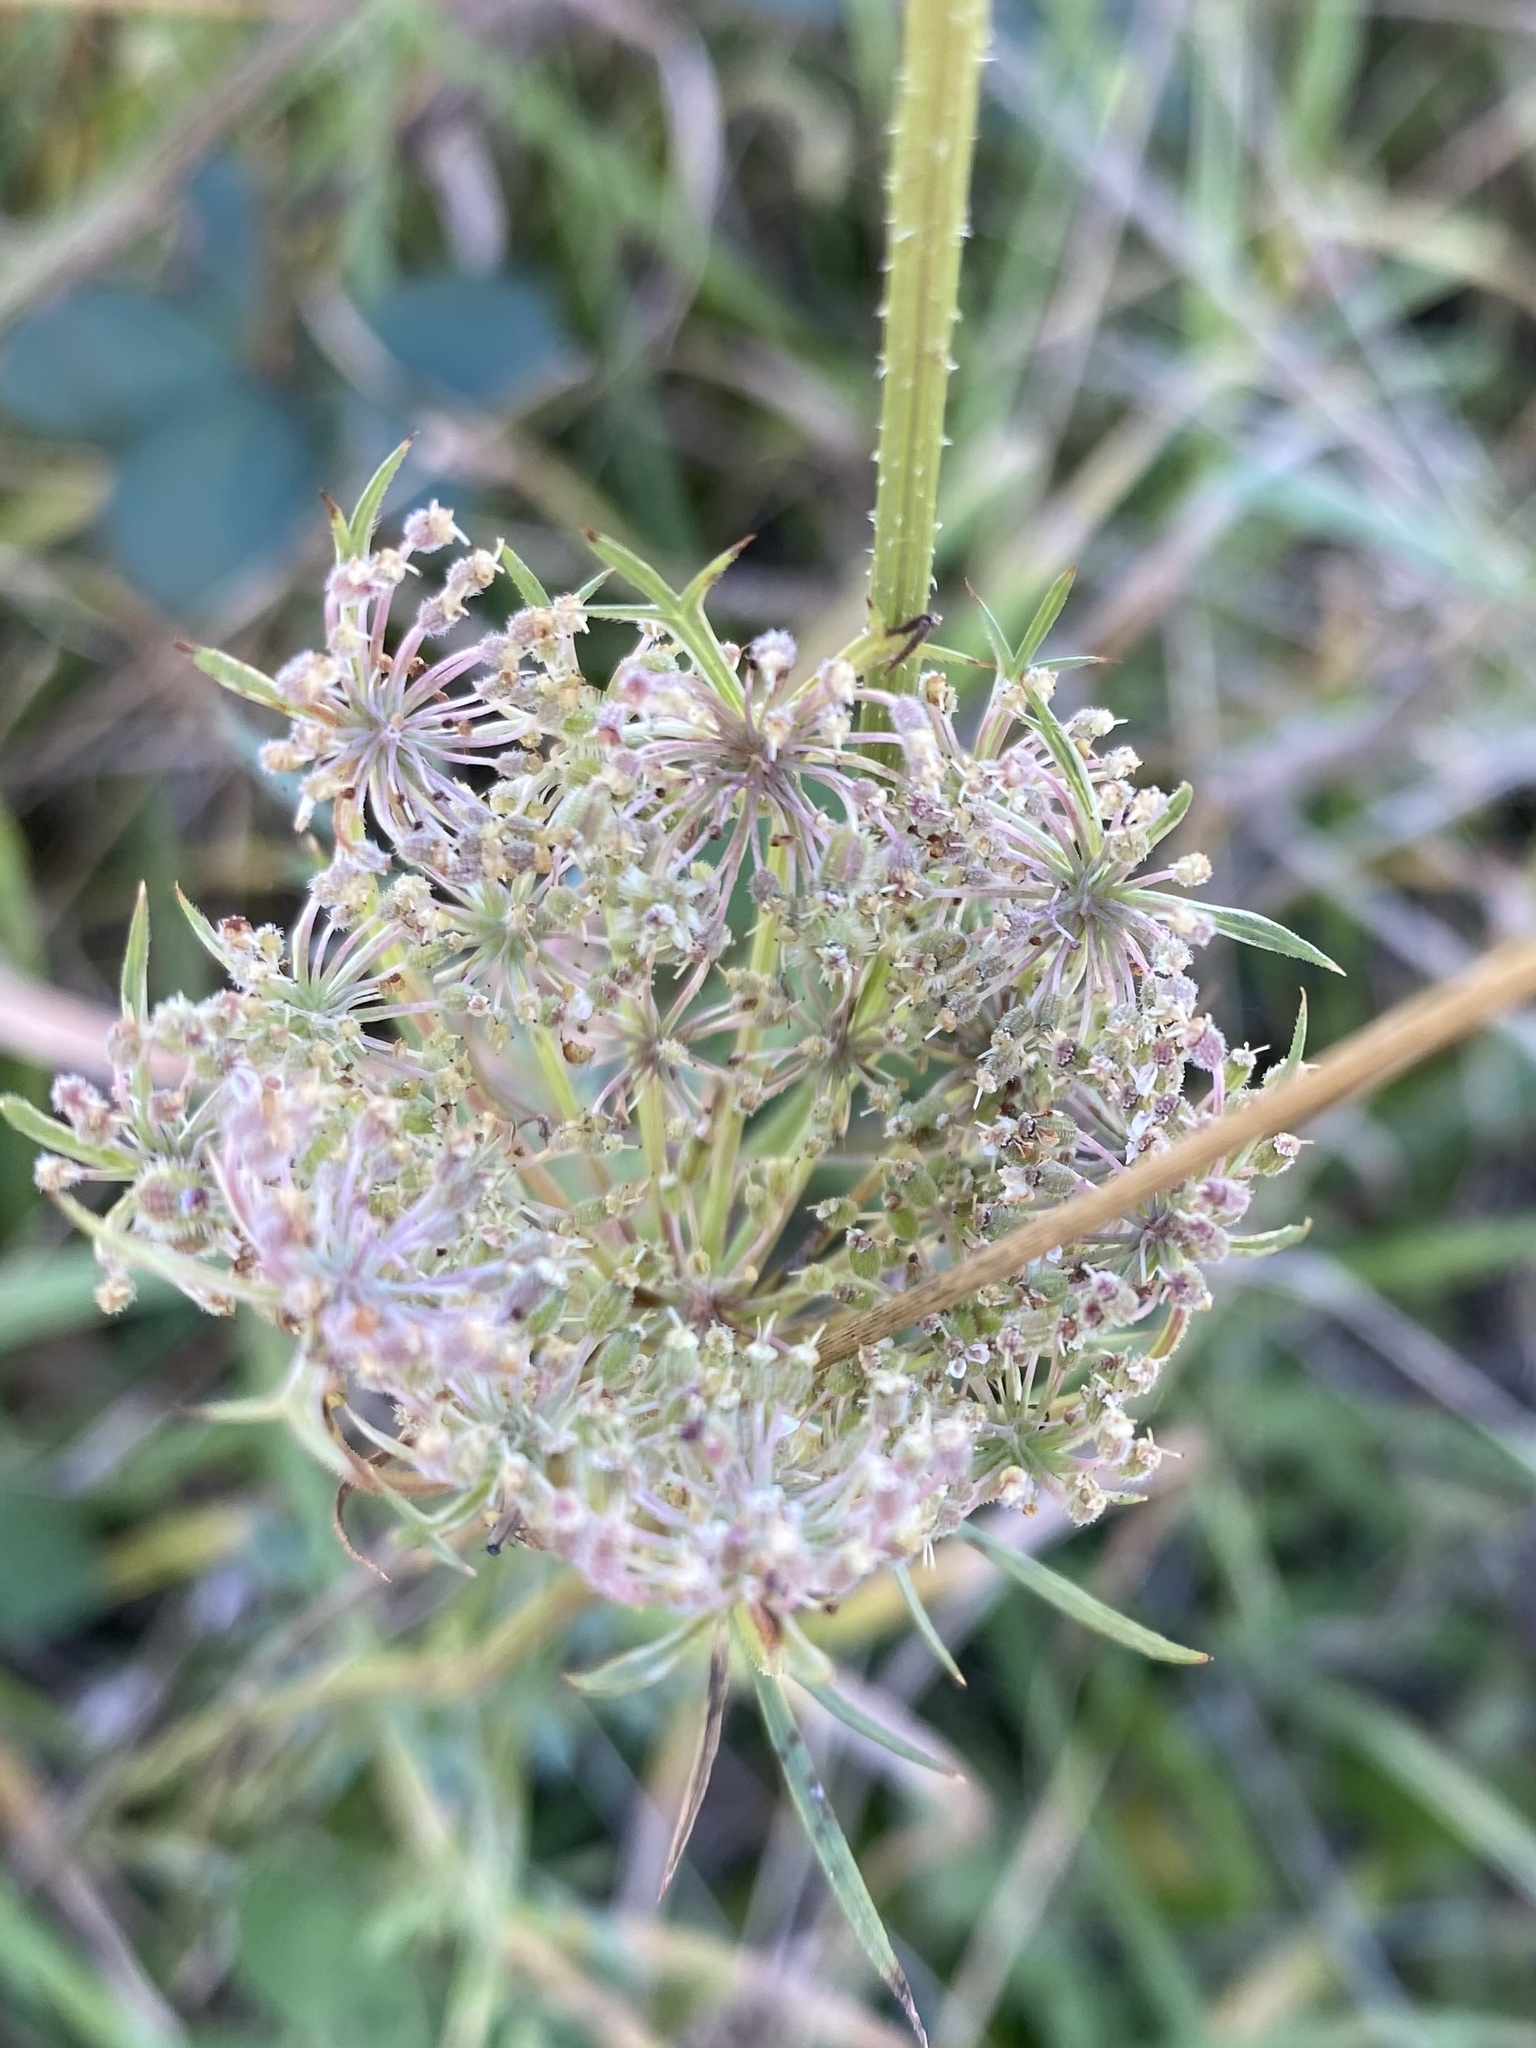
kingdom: Plantae
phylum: Tracheophyta
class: Magnoliopsida
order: Apiales
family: Apiaceae
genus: Daucus
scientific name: Daucus carota
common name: Wild carrot
